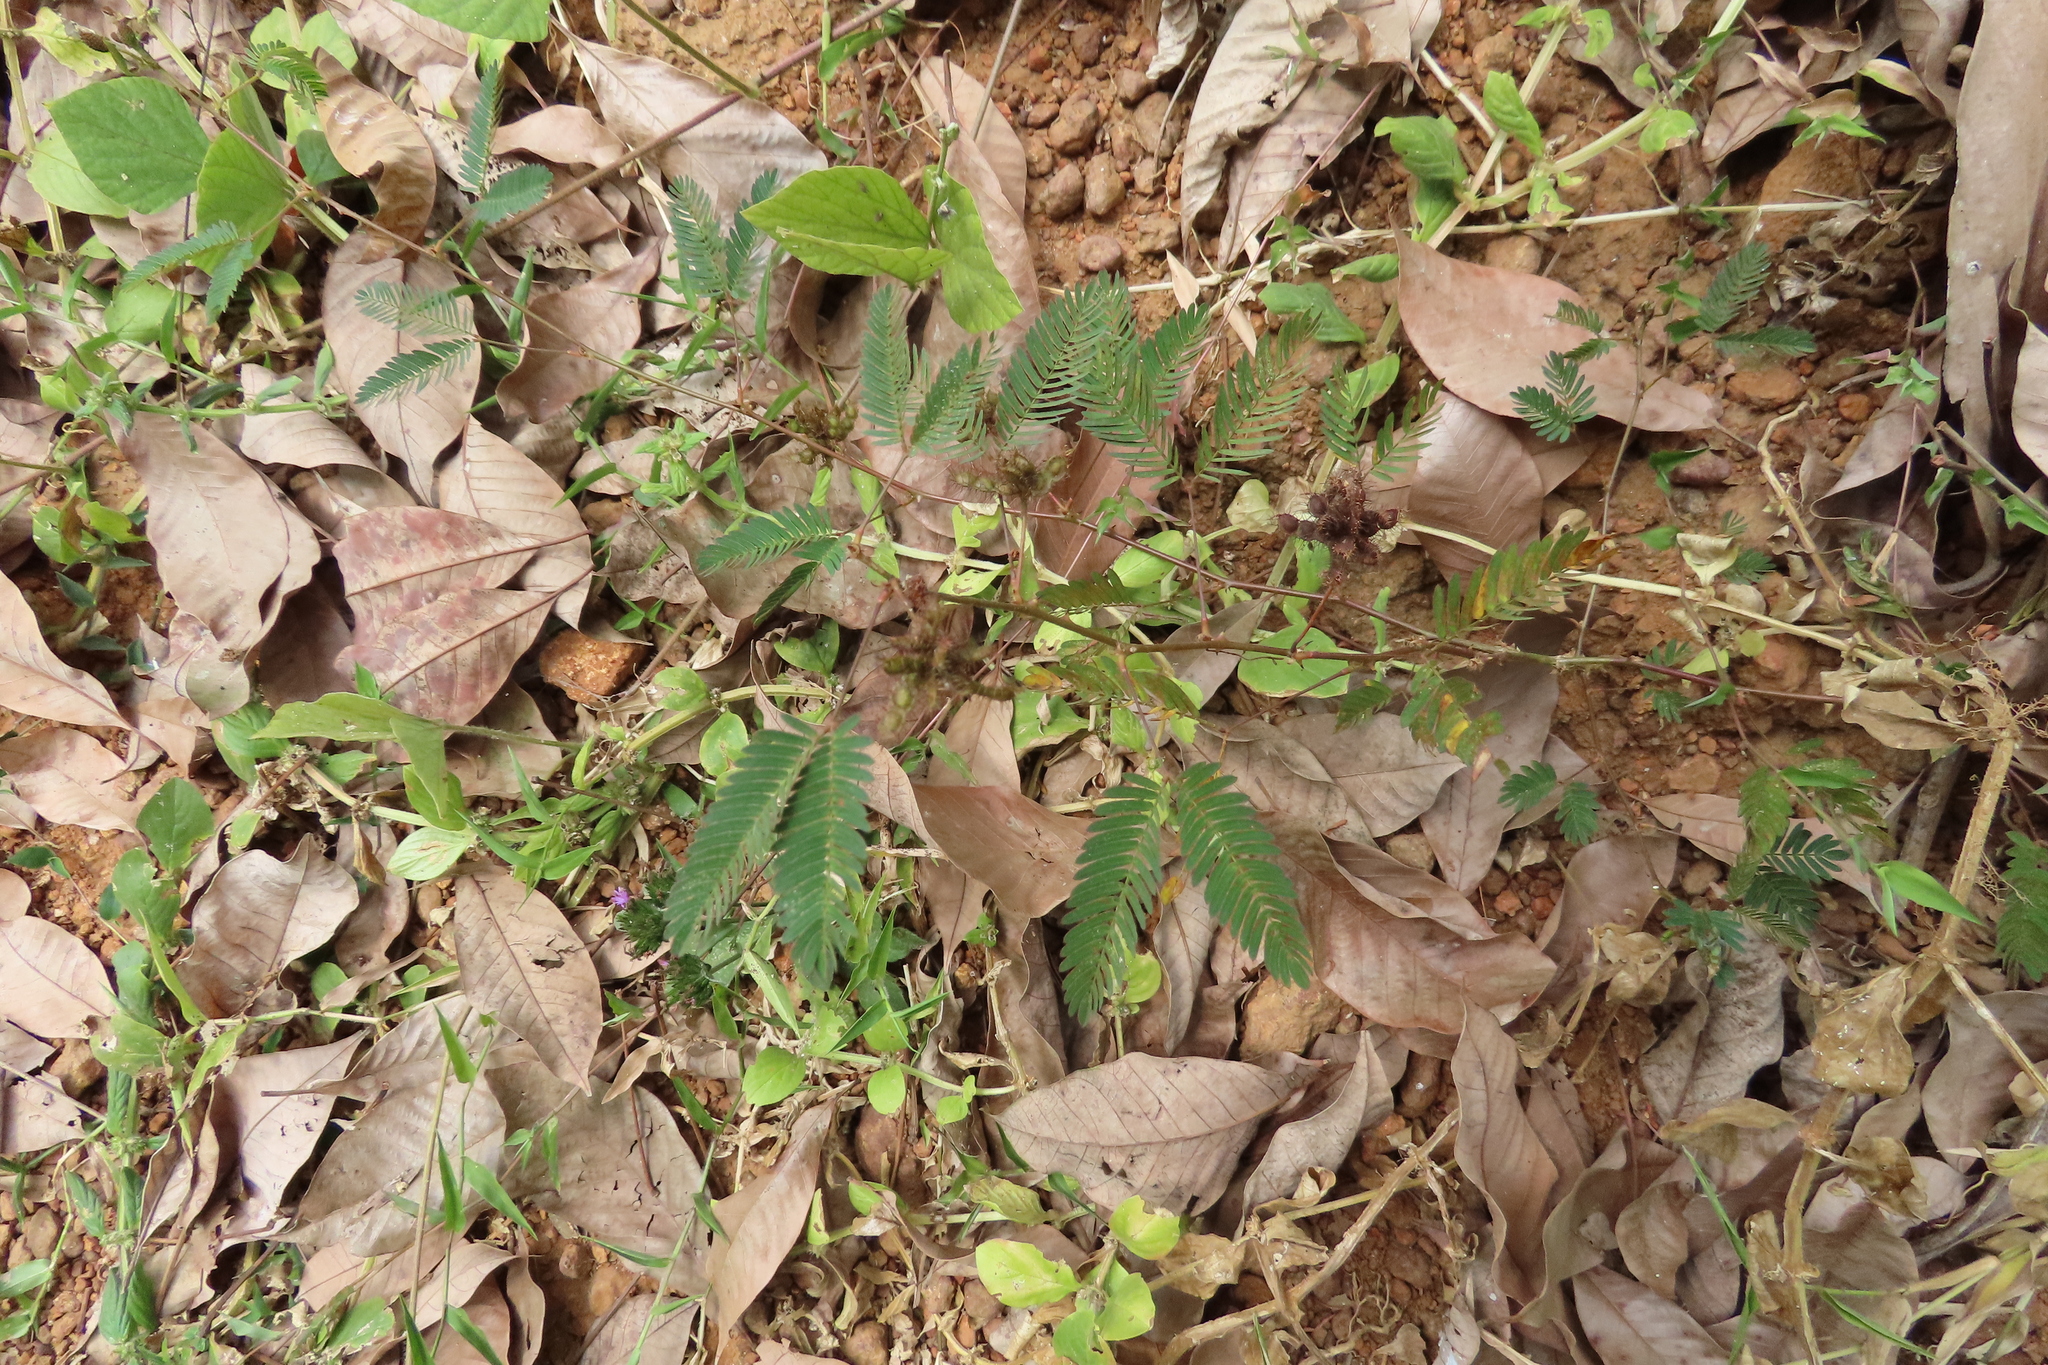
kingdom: Plantae
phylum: Tracheophyta
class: Magnoliopsida
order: Fabales
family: Fabaceae
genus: Mimosa
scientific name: Mimosa pudica
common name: Sensitive plant
